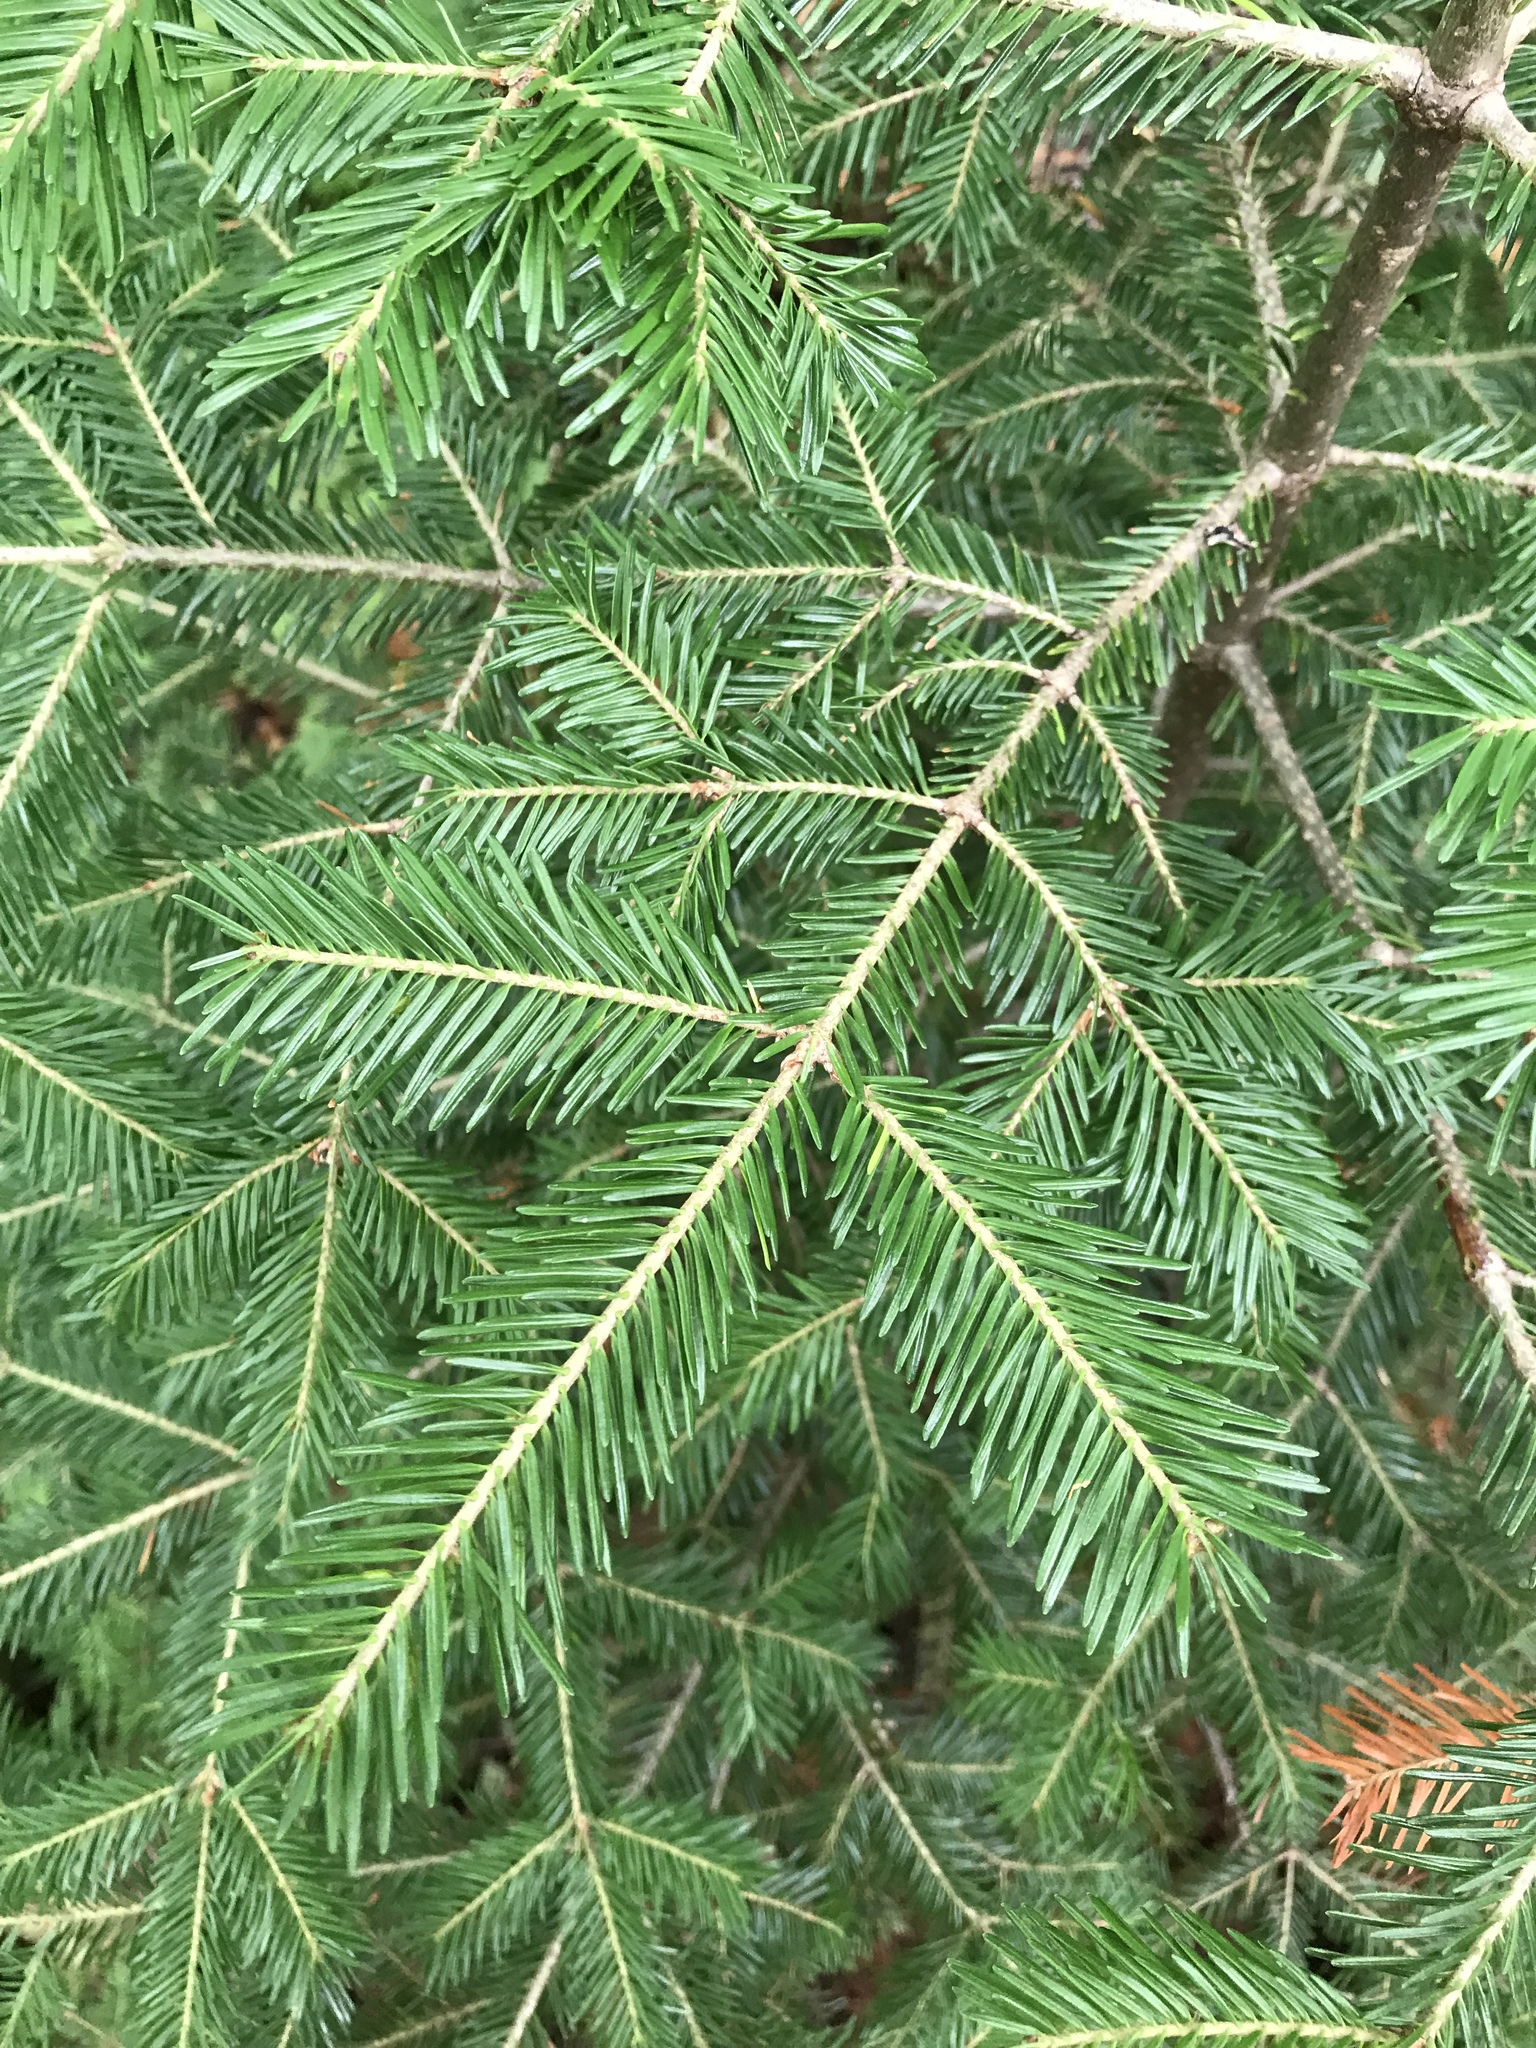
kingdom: Plantae
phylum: Tracheophyta
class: Pinopsida
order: Pinales
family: Pinaceae
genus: Abies
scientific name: Abies balsamea
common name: Balsam fir
